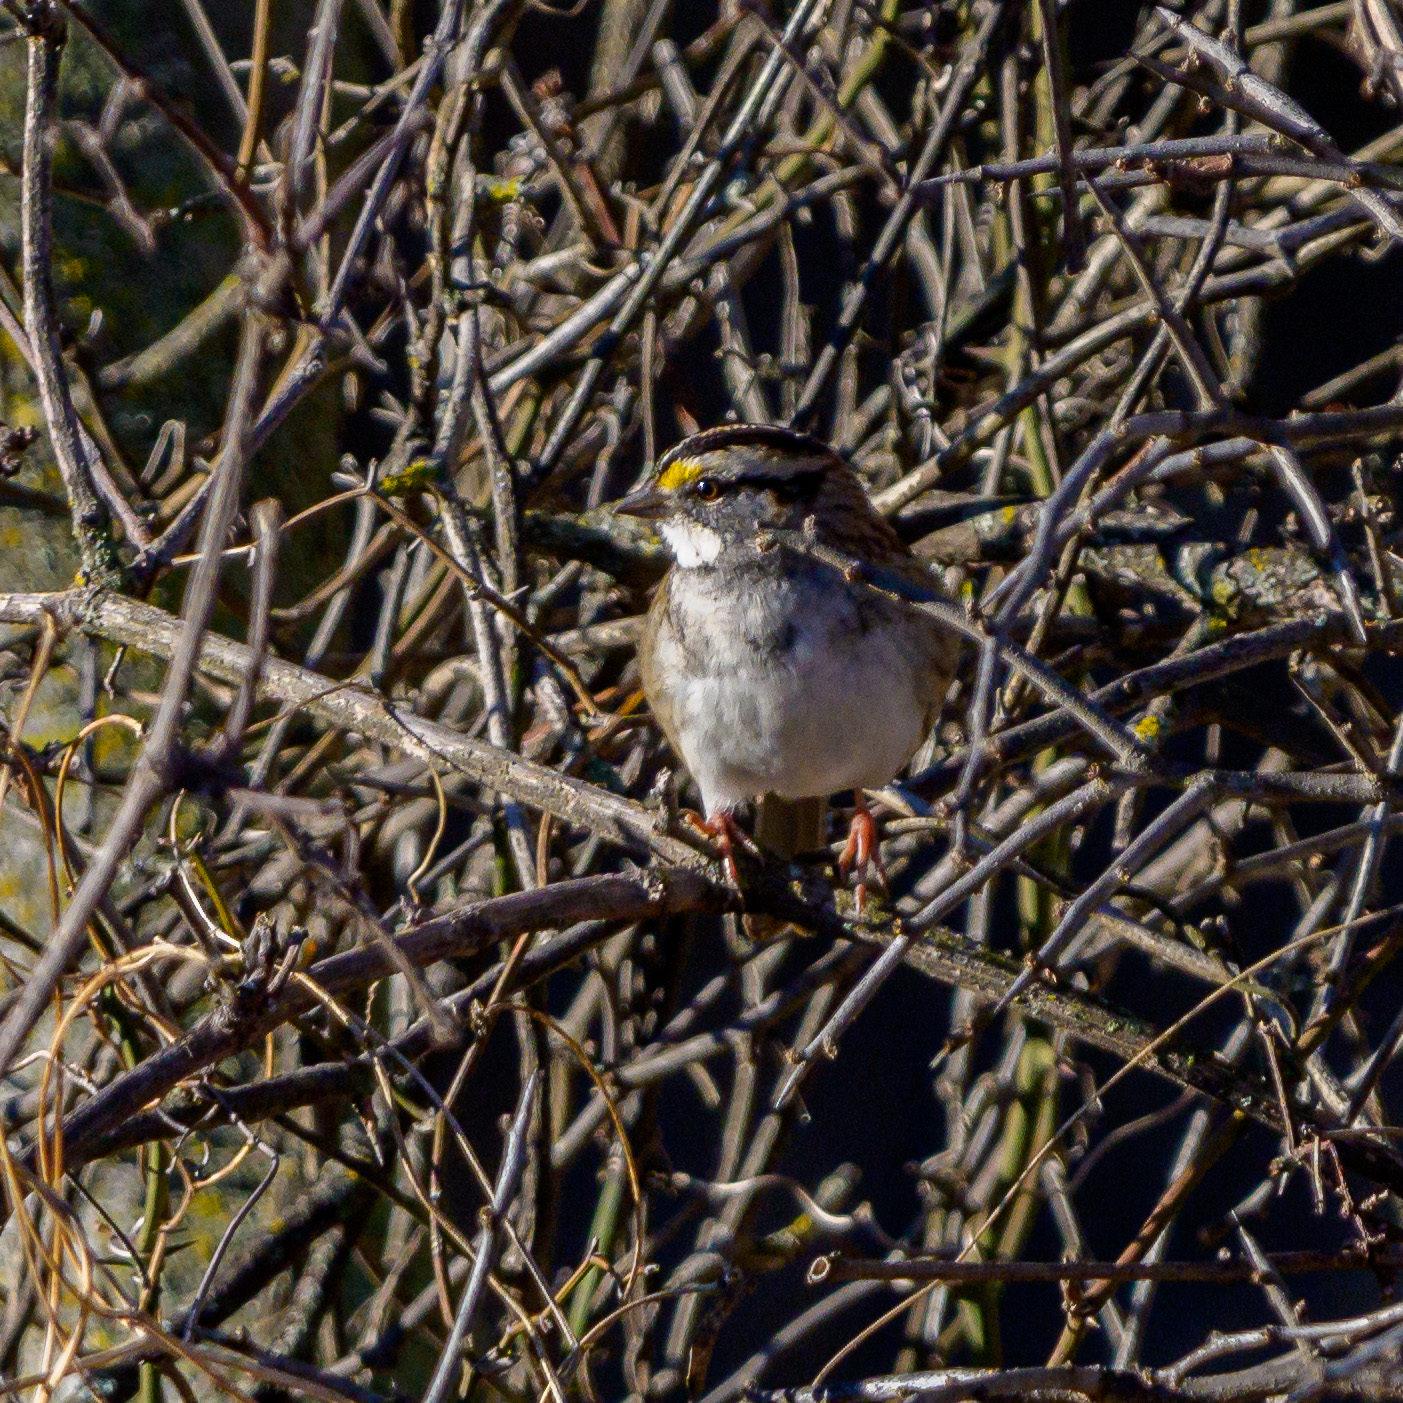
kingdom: Animalia
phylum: Chordata
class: Aves
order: Passeriformes
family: Passerellidae
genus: Zonotrichia
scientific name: Zonotrichia albicollis
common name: White-throated sparrow
